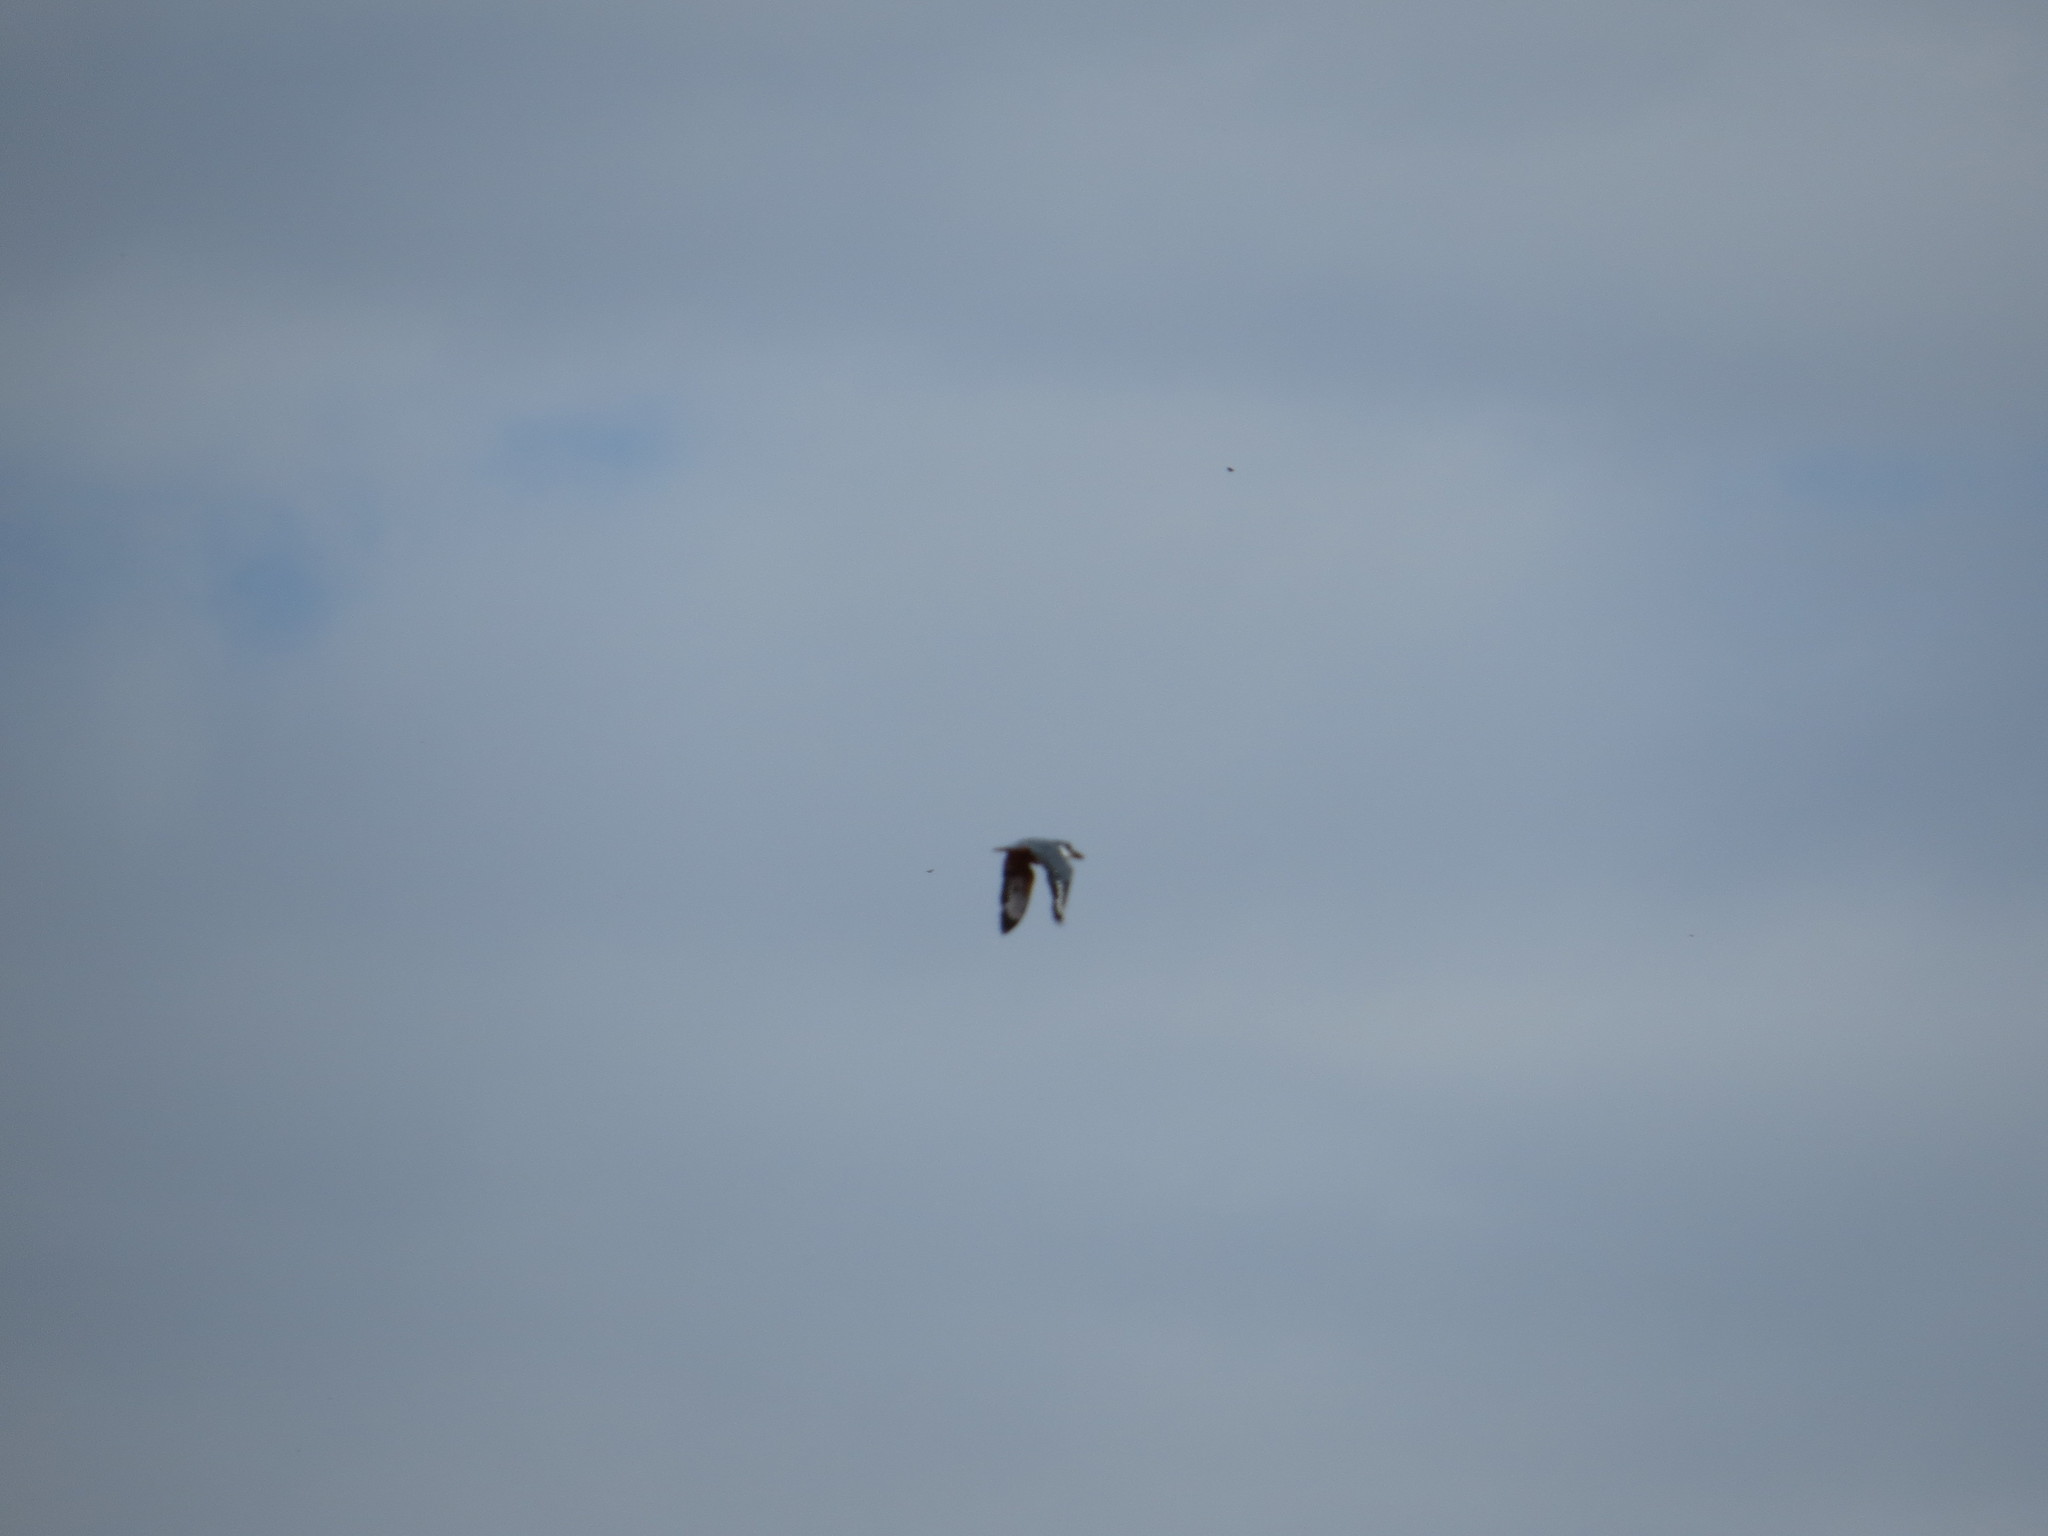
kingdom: Animalia
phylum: Chordata
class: Aves
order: Coraciiformes
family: Alcedinidae
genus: Megaceryle
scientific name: Megaceryle torquata
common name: Ringed kingfisher
